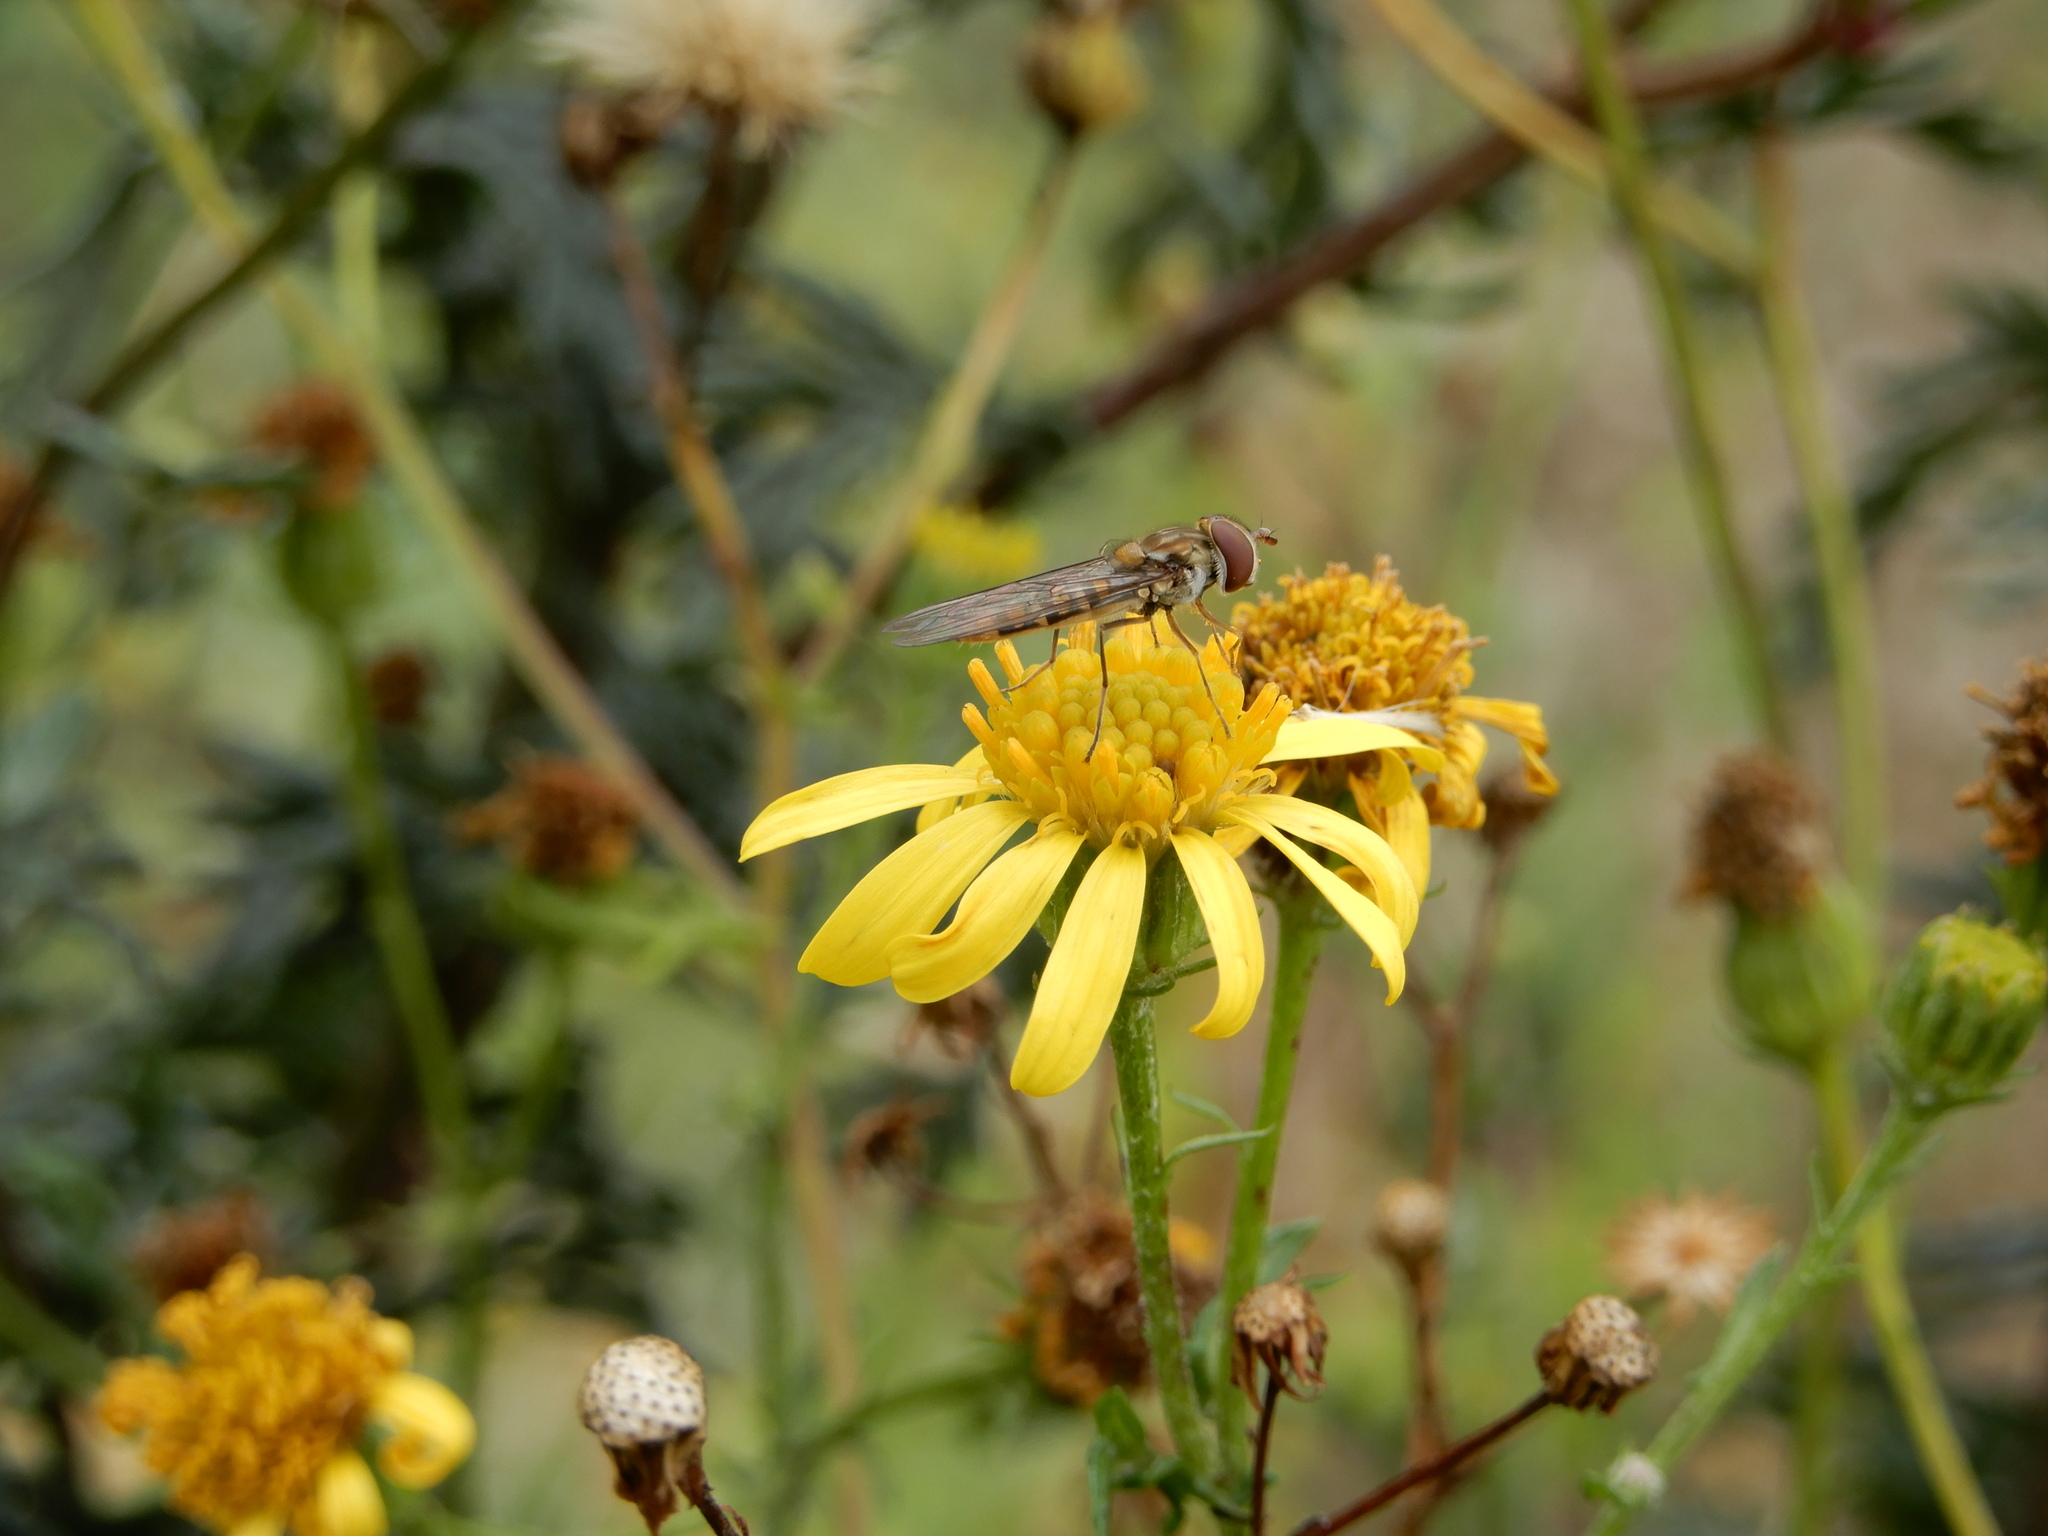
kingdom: Animalia
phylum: Arthropoda
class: Insecta
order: Diptera
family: Syrphidae
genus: Episyrphus
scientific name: Episyrphus balteatus
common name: Marmalade hoverfly
